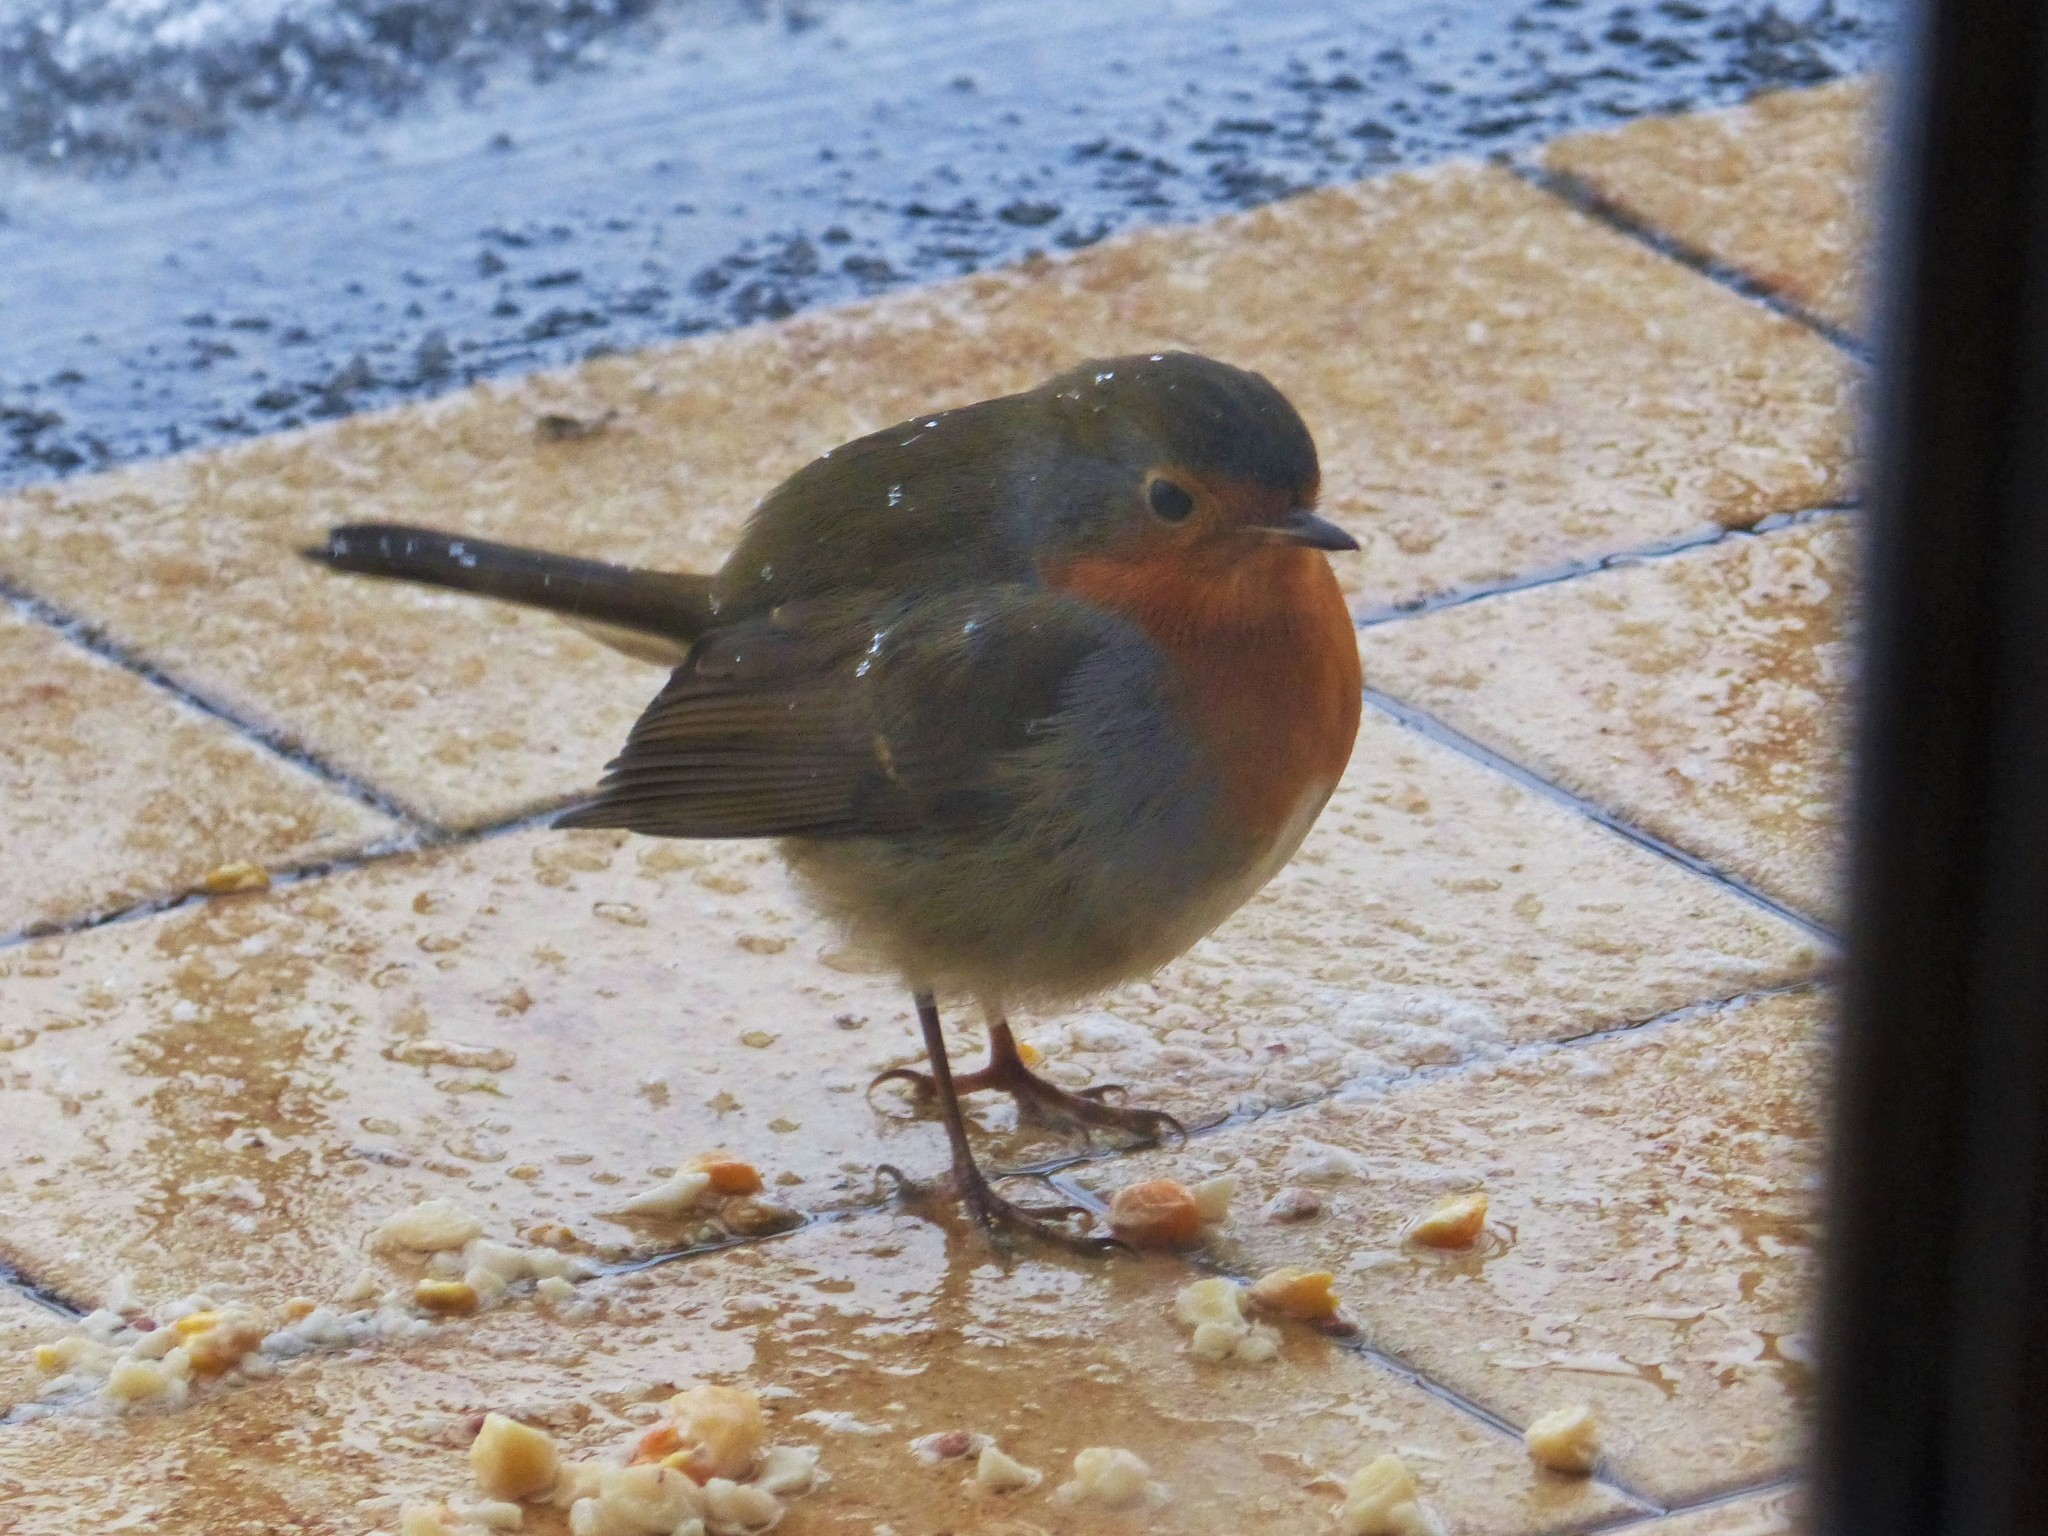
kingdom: Animalia
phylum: Chordata
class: Aves
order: Passeriformes
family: Muscicapidae
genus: Erithacus
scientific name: Erithacus rubecula
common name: European robin
